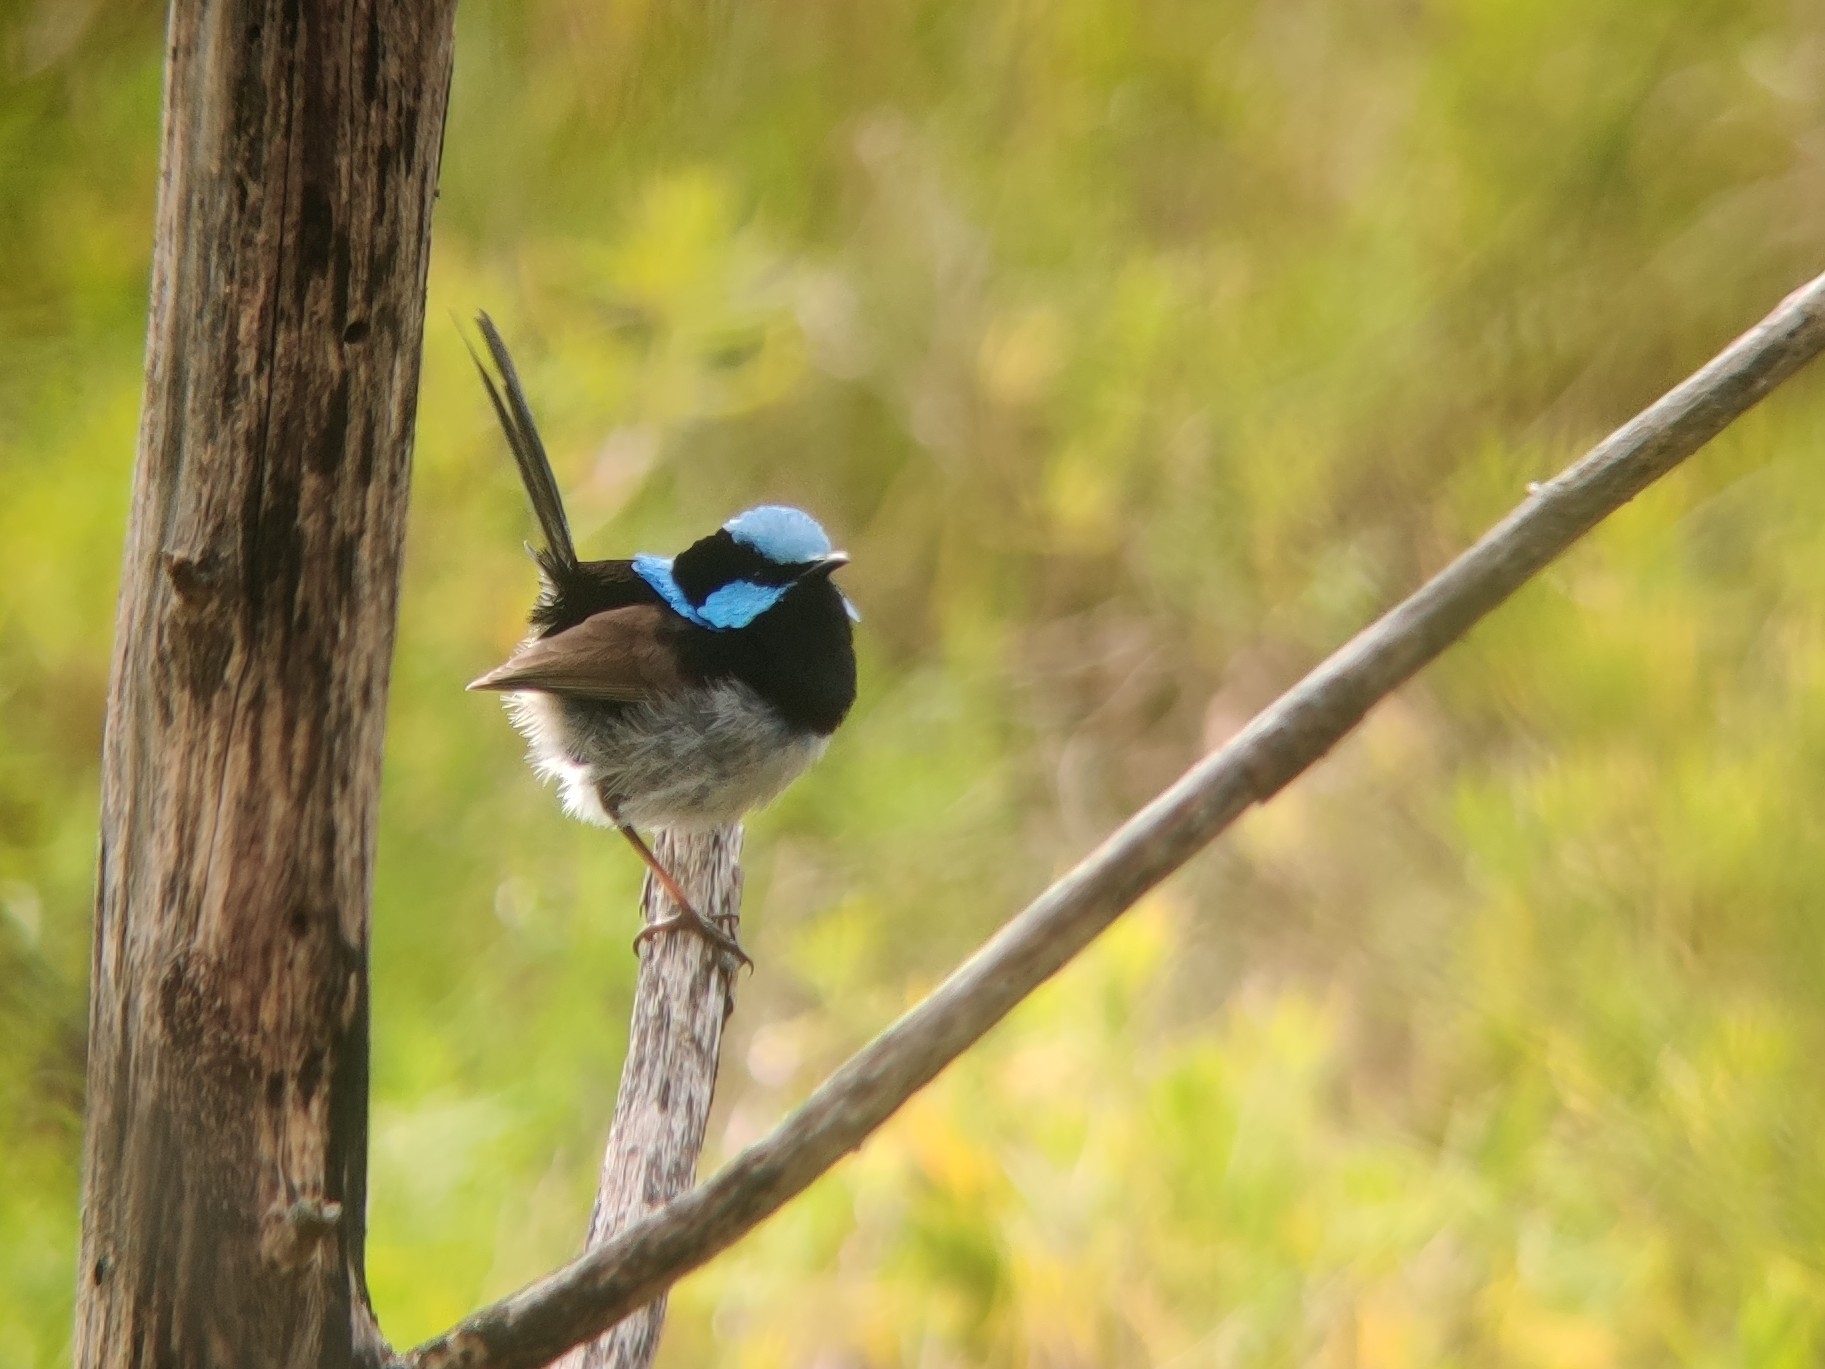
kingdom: Animalia
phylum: Chordata
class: Aves
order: Passeriformes
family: Maluridae
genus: Malurus
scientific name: Malurus cyaneus
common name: Superb fairywren
